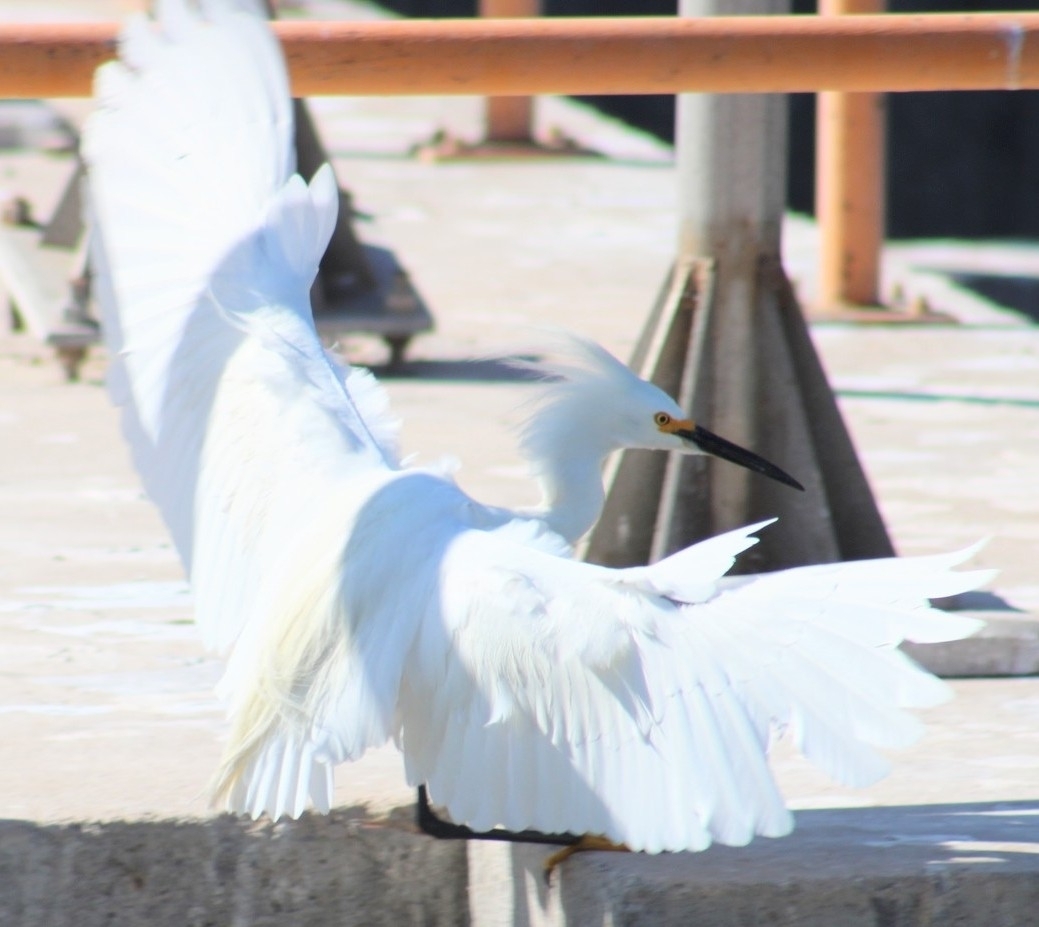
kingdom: Animalia
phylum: Chordata
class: Aves
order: Pelecaniformes
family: Ardeidae
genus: Egretta
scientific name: Egretta thula
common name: Snowy egret
